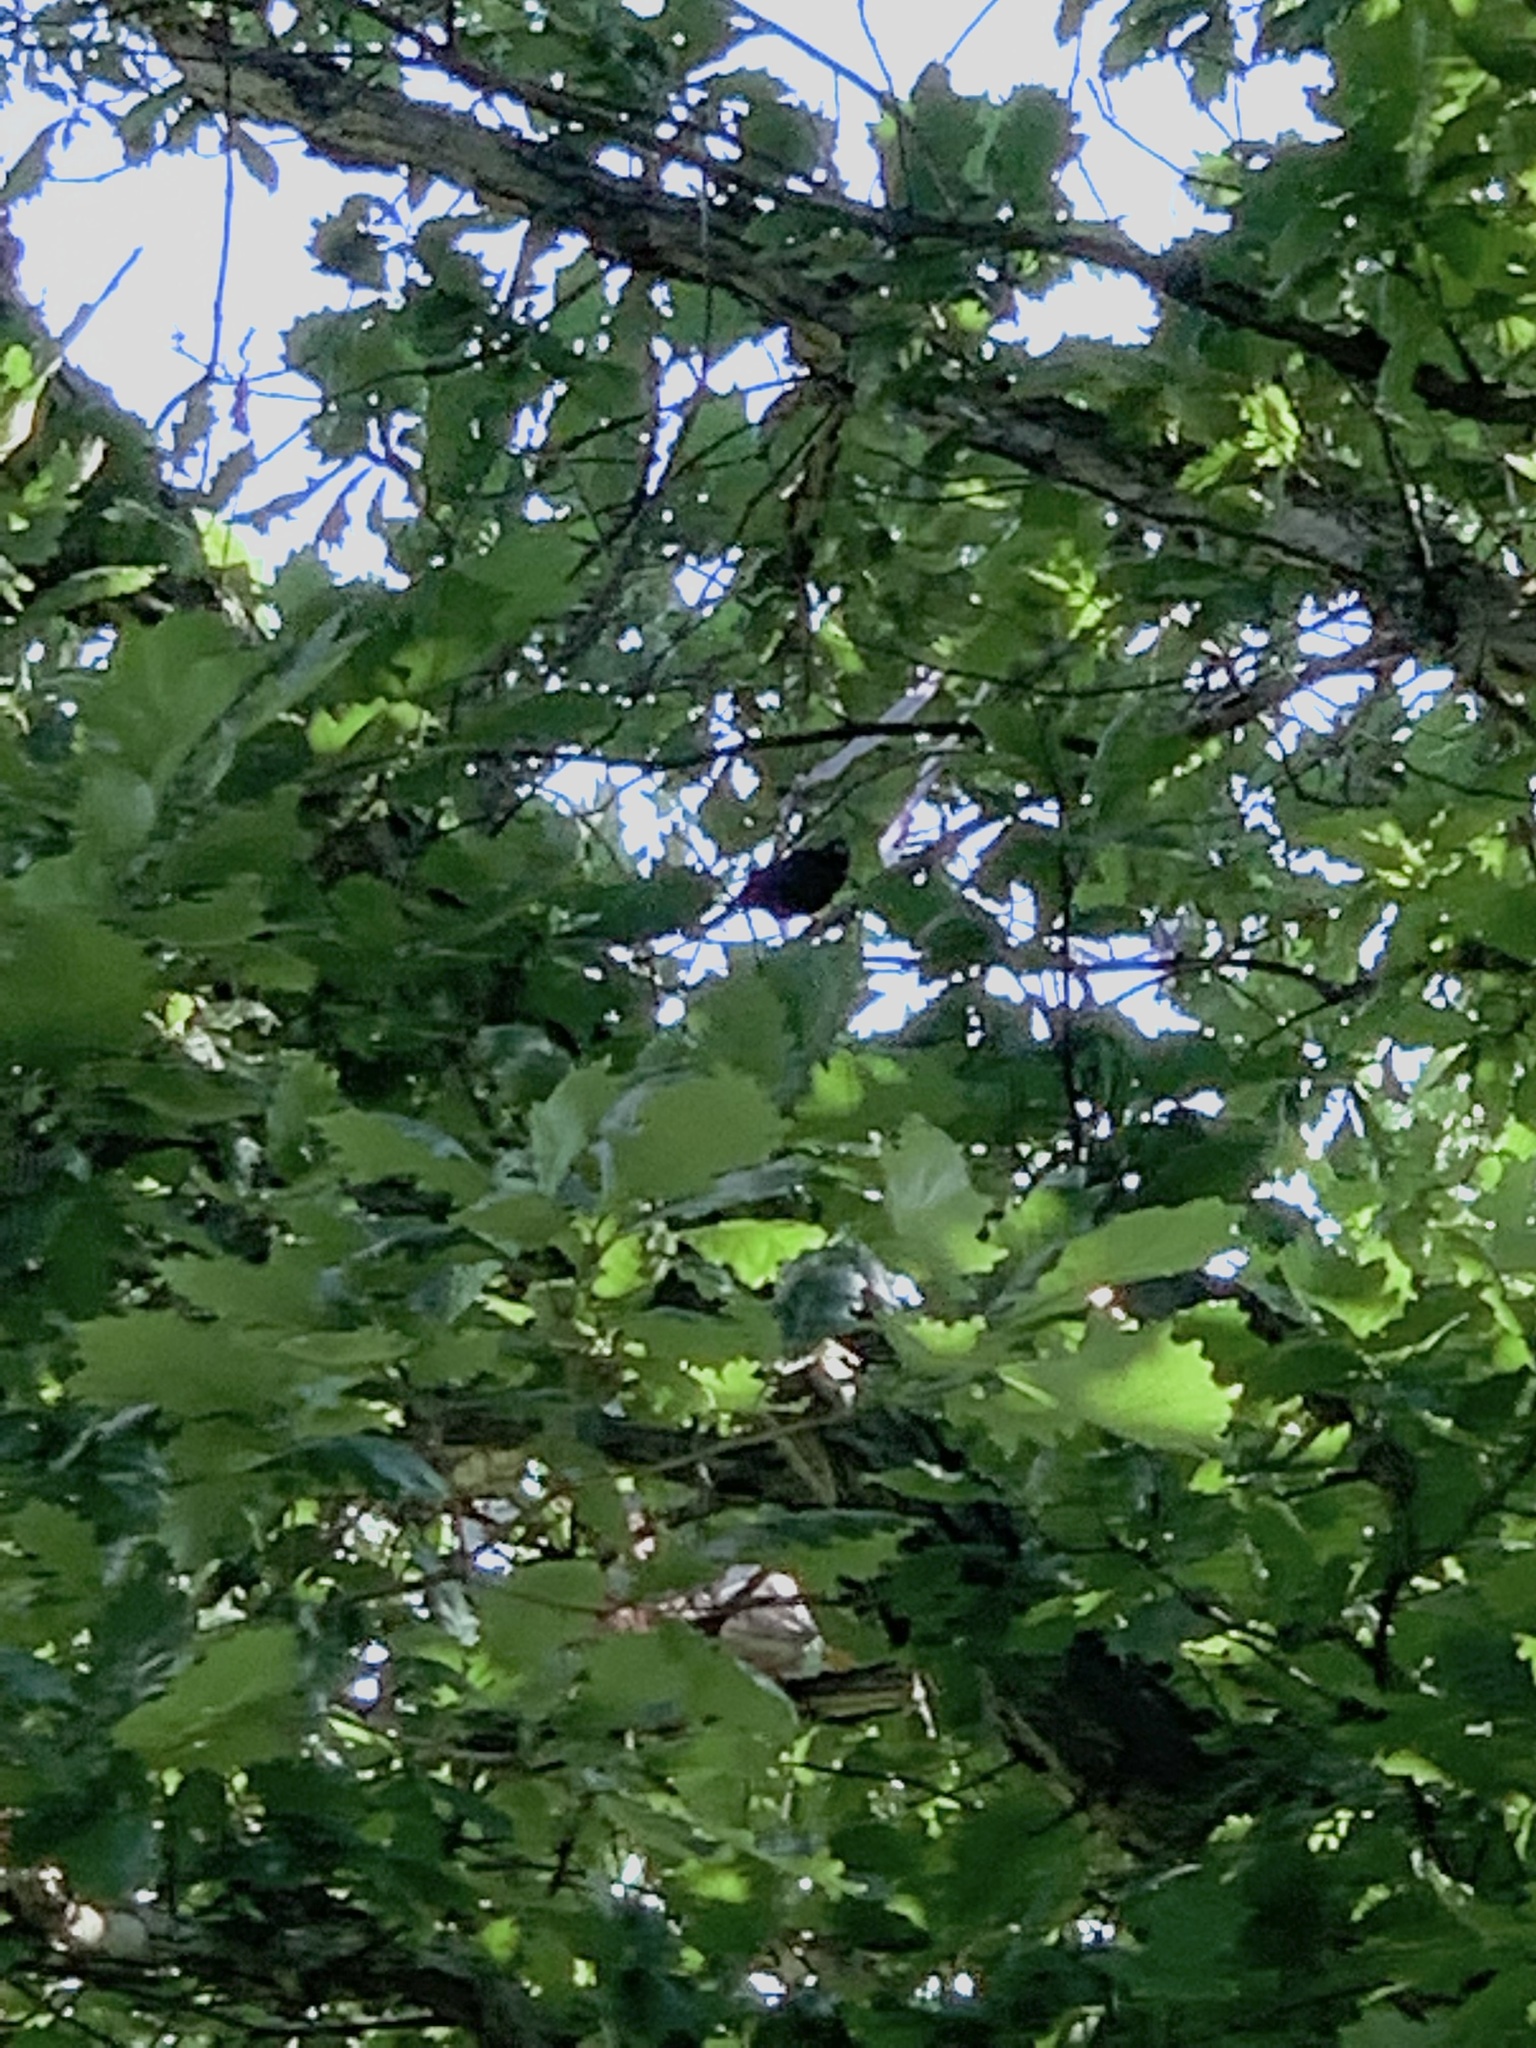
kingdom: Animalia
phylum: Chordata
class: Aves
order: Passeriformes
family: Icteridae
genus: Molothrus
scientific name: Molothrus ater
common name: Brown-headed cowbird
